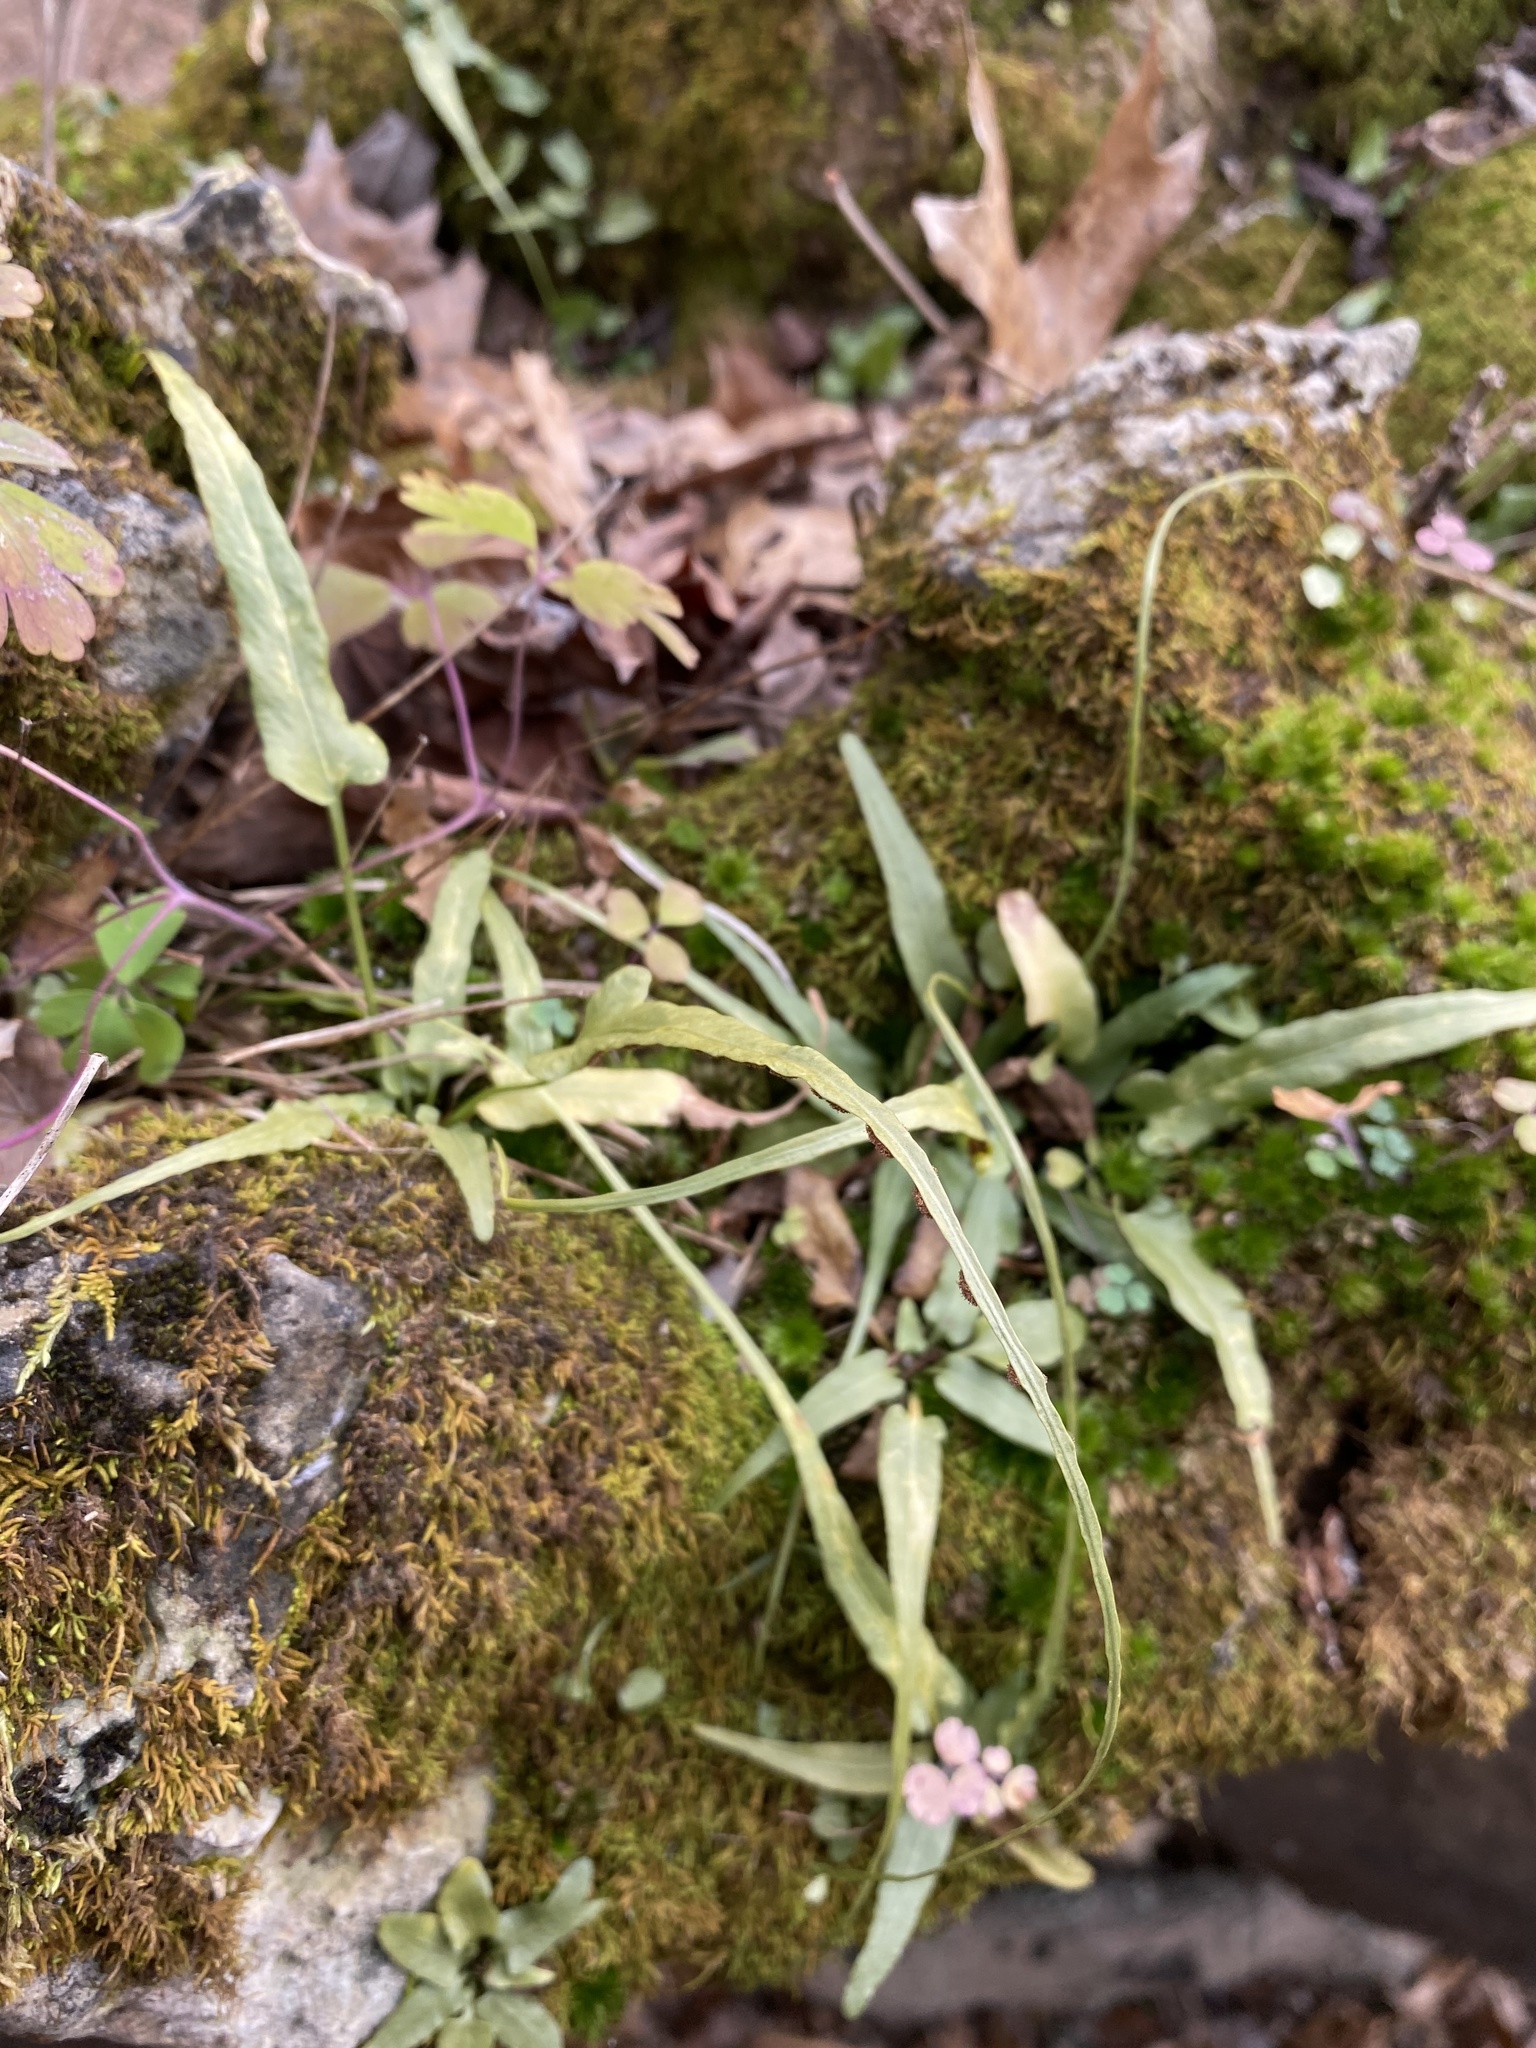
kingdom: Plantae
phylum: Tracheophyta
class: Polypodiopsida
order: Polypodiales
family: Aspleniaceae
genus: Asplenium
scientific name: Asplenium rhizophyllum
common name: Walking fern
